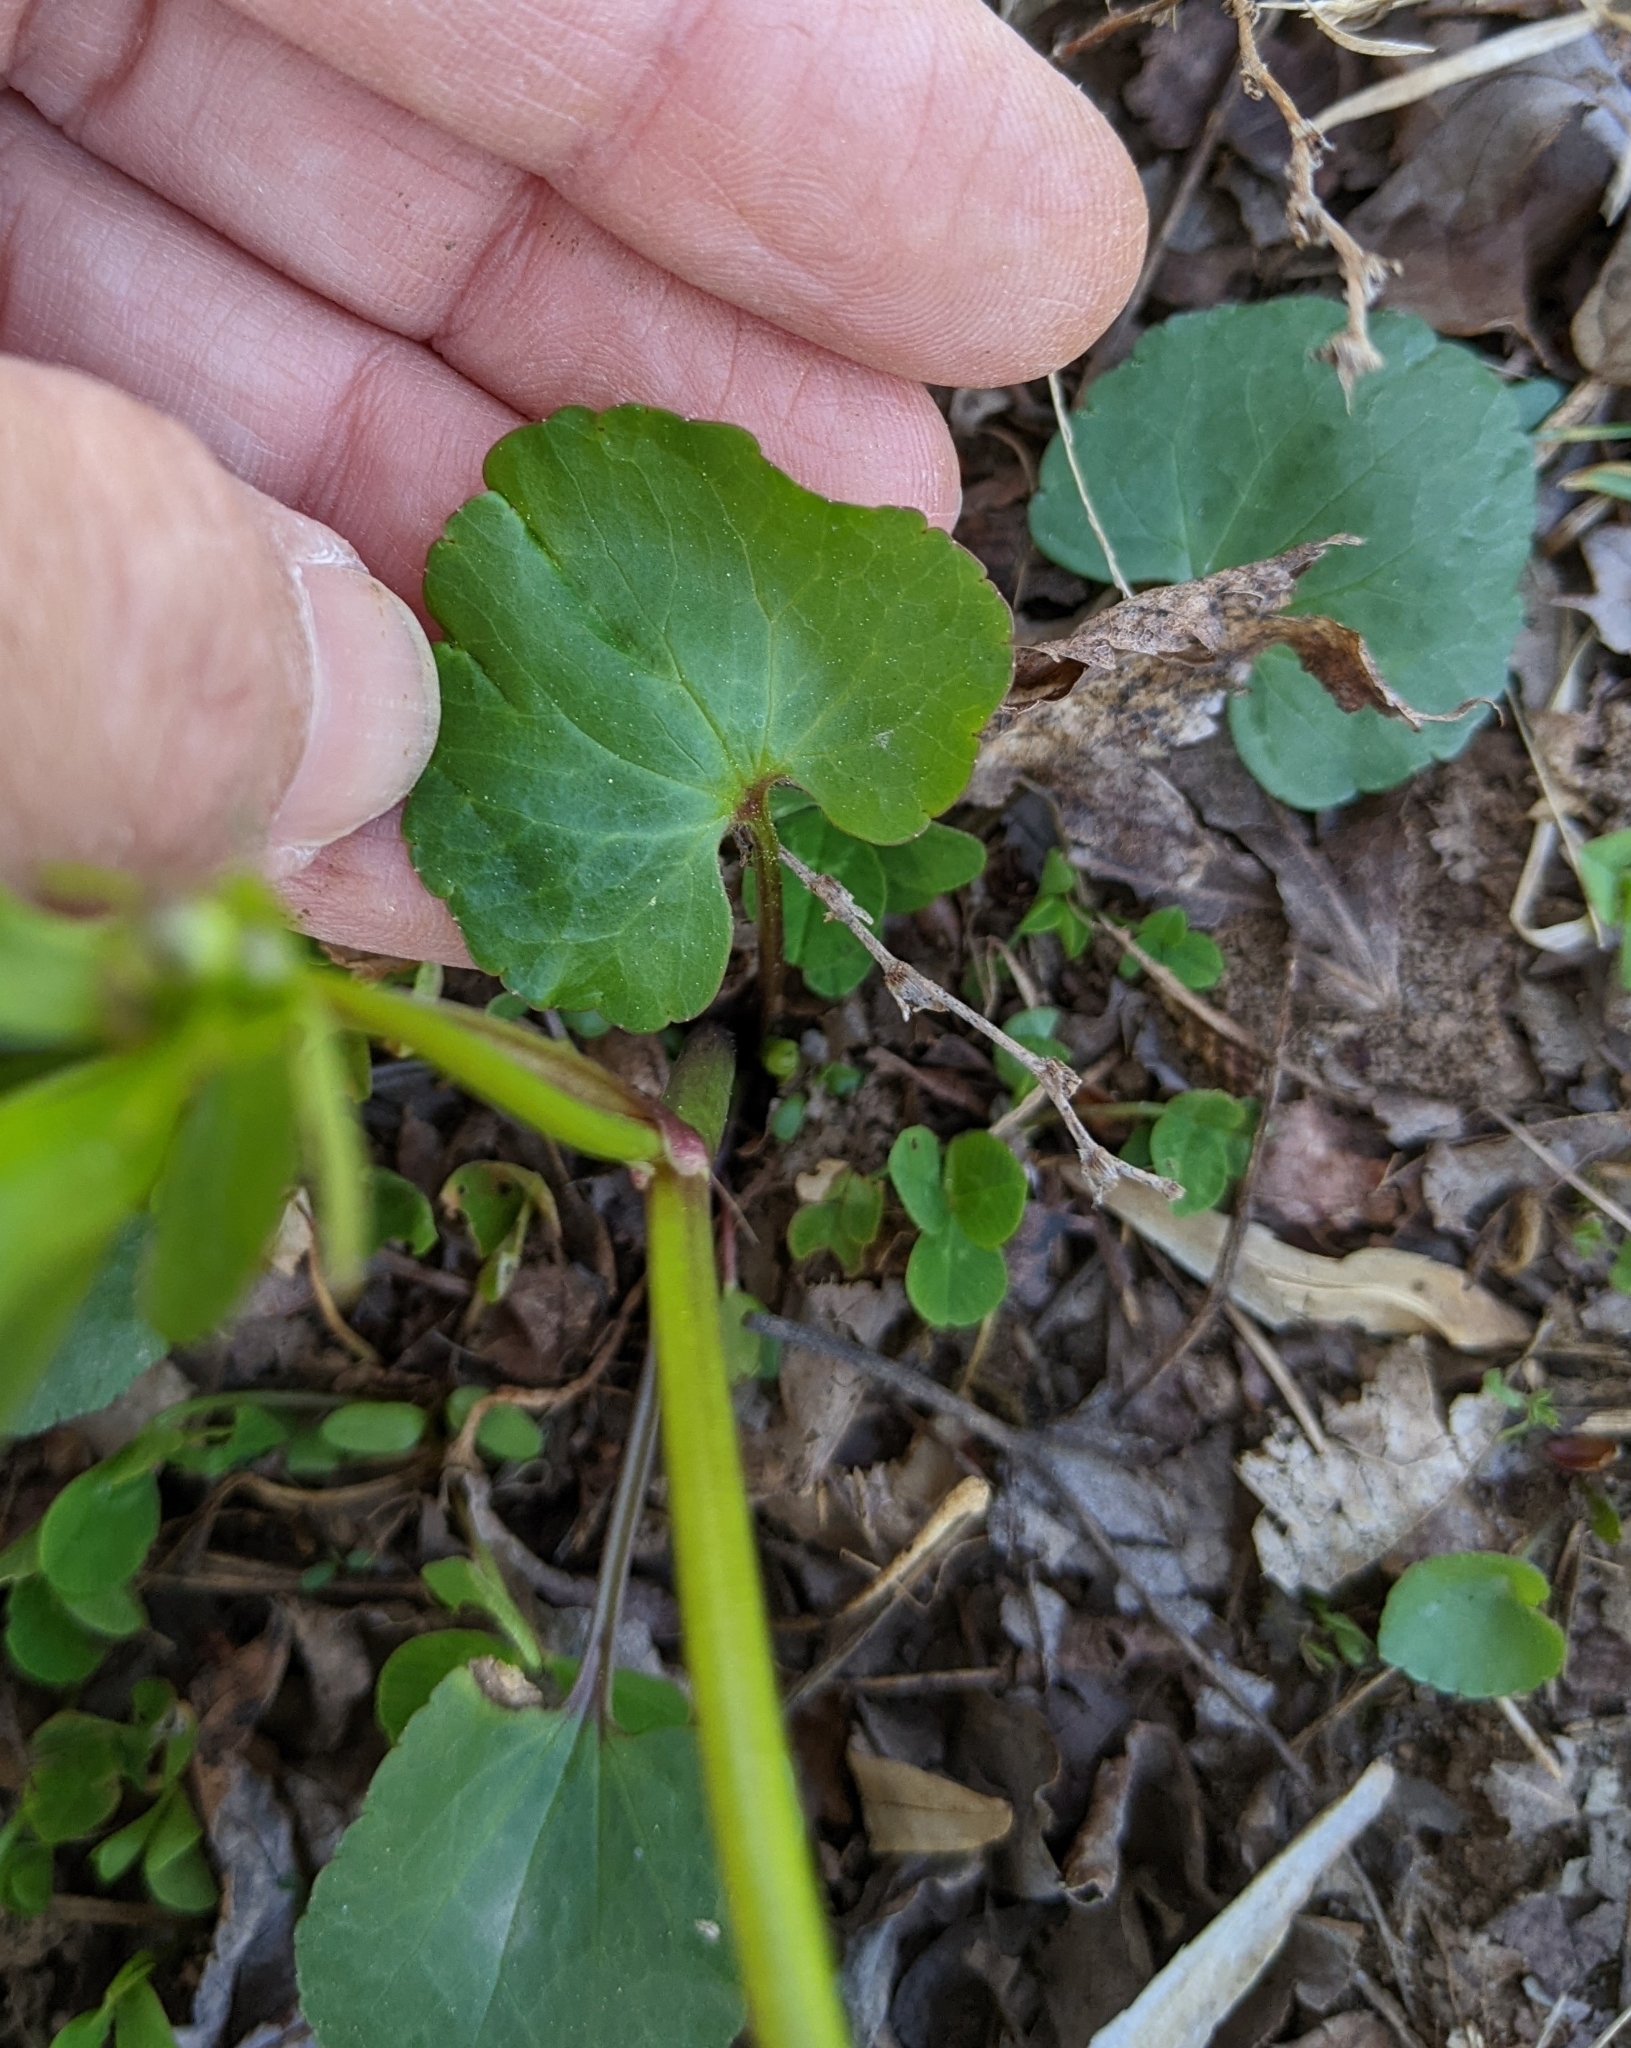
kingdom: Plantae
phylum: Tracheophyta
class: Magnoliopsida
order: Ranunculales
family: Ranunculaceae
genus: Ranunculus
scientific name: Ranunculus abortivus
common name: Early wood buttercup
